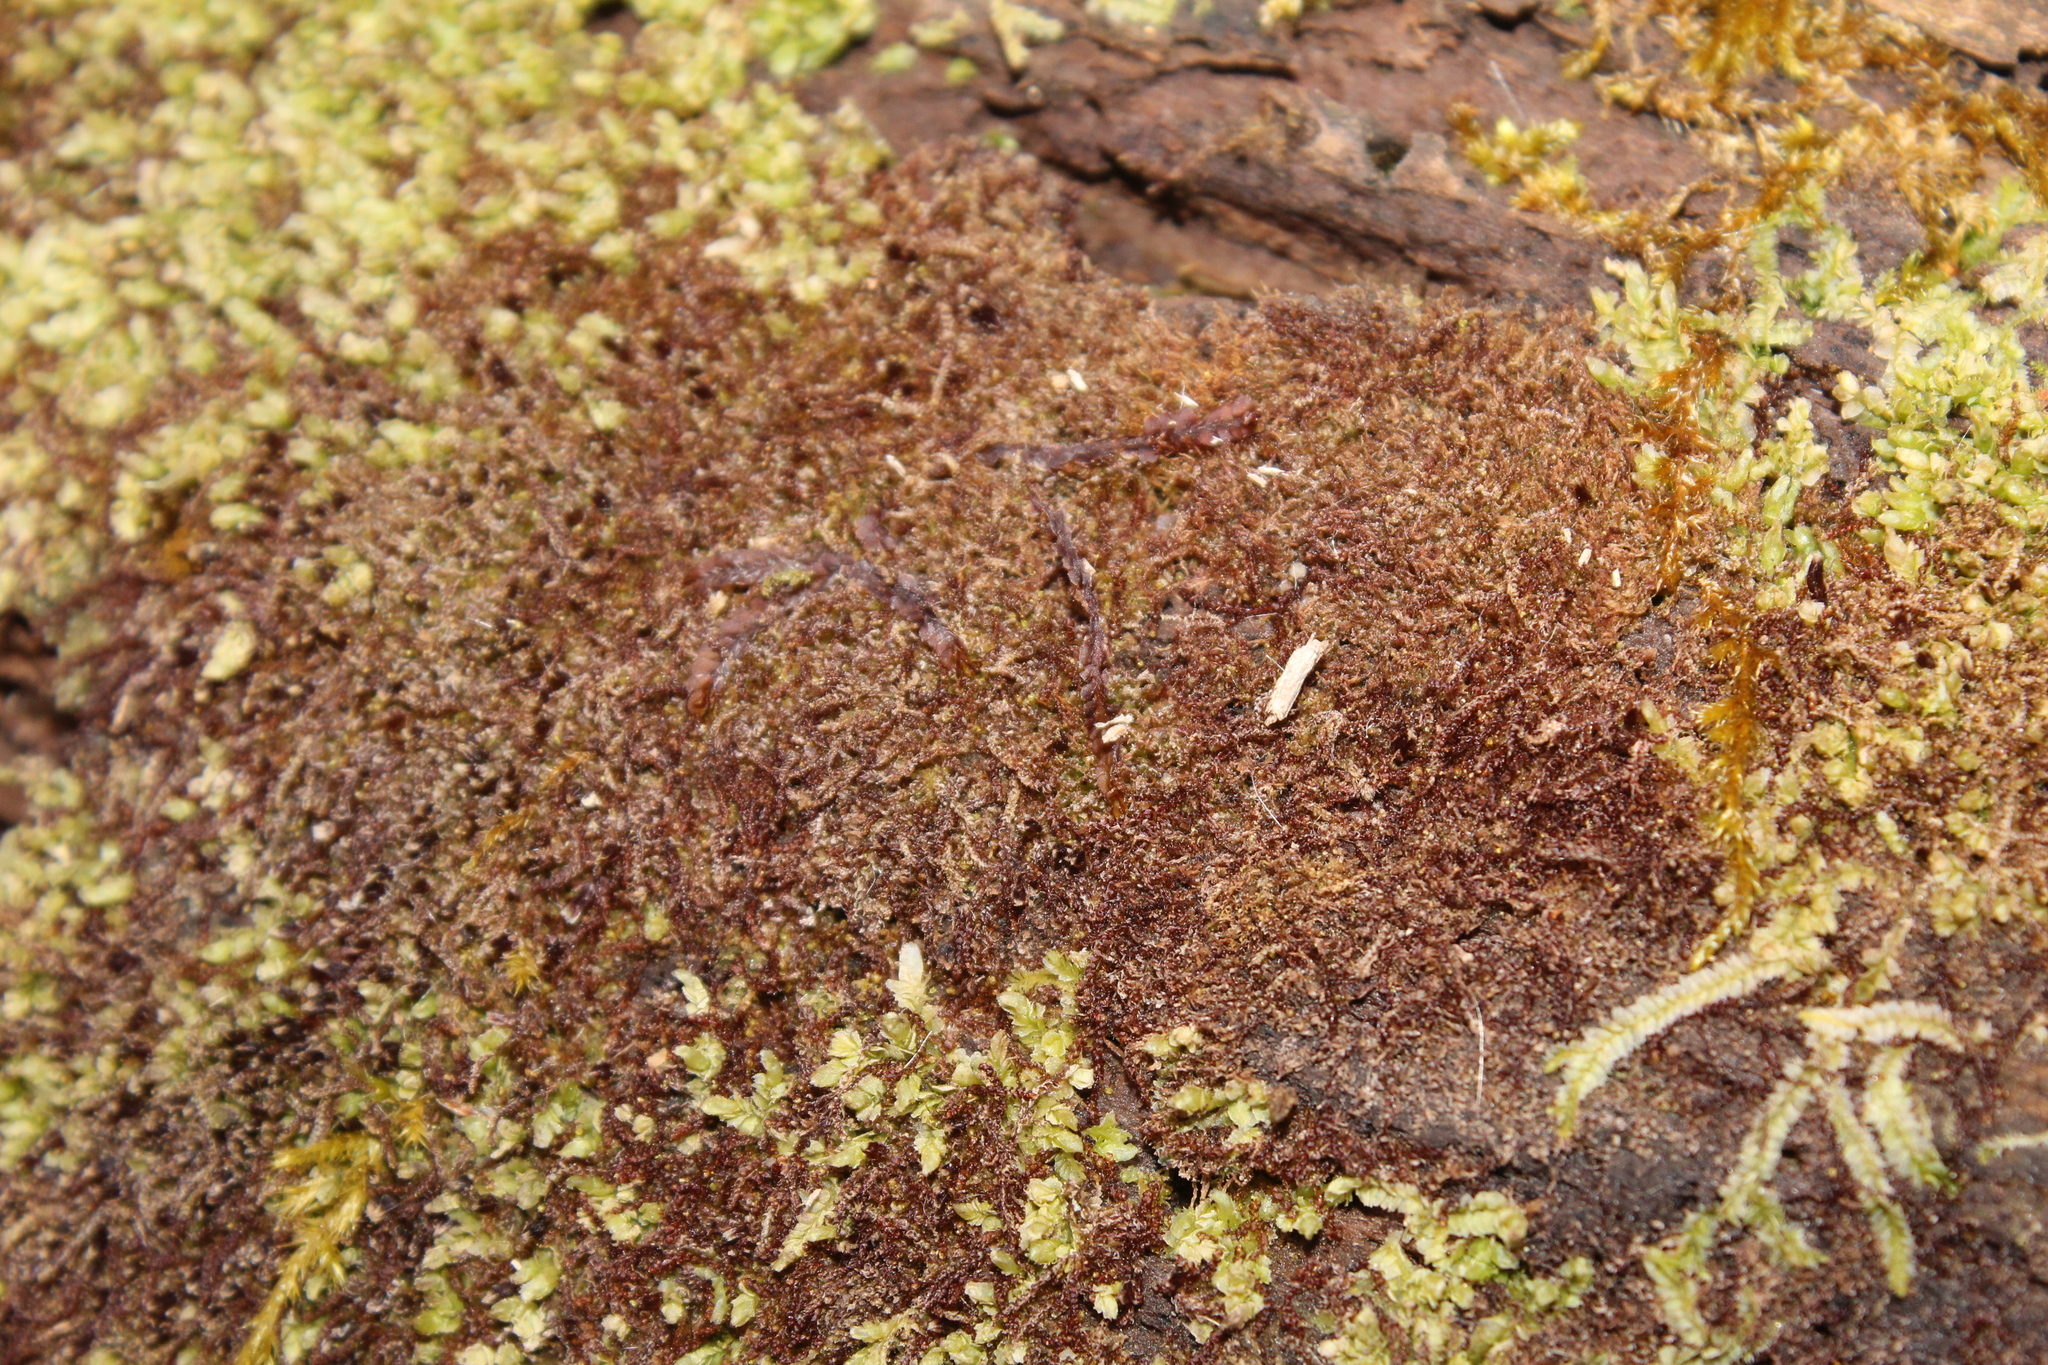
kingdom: Plantae
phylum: Marchantiophyta
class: Jungermanniopsida
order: Jungermanniales
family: Cephaloziaceae
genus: Nowellia
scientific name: Nowellia curvifolia
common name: Wood rustwort
